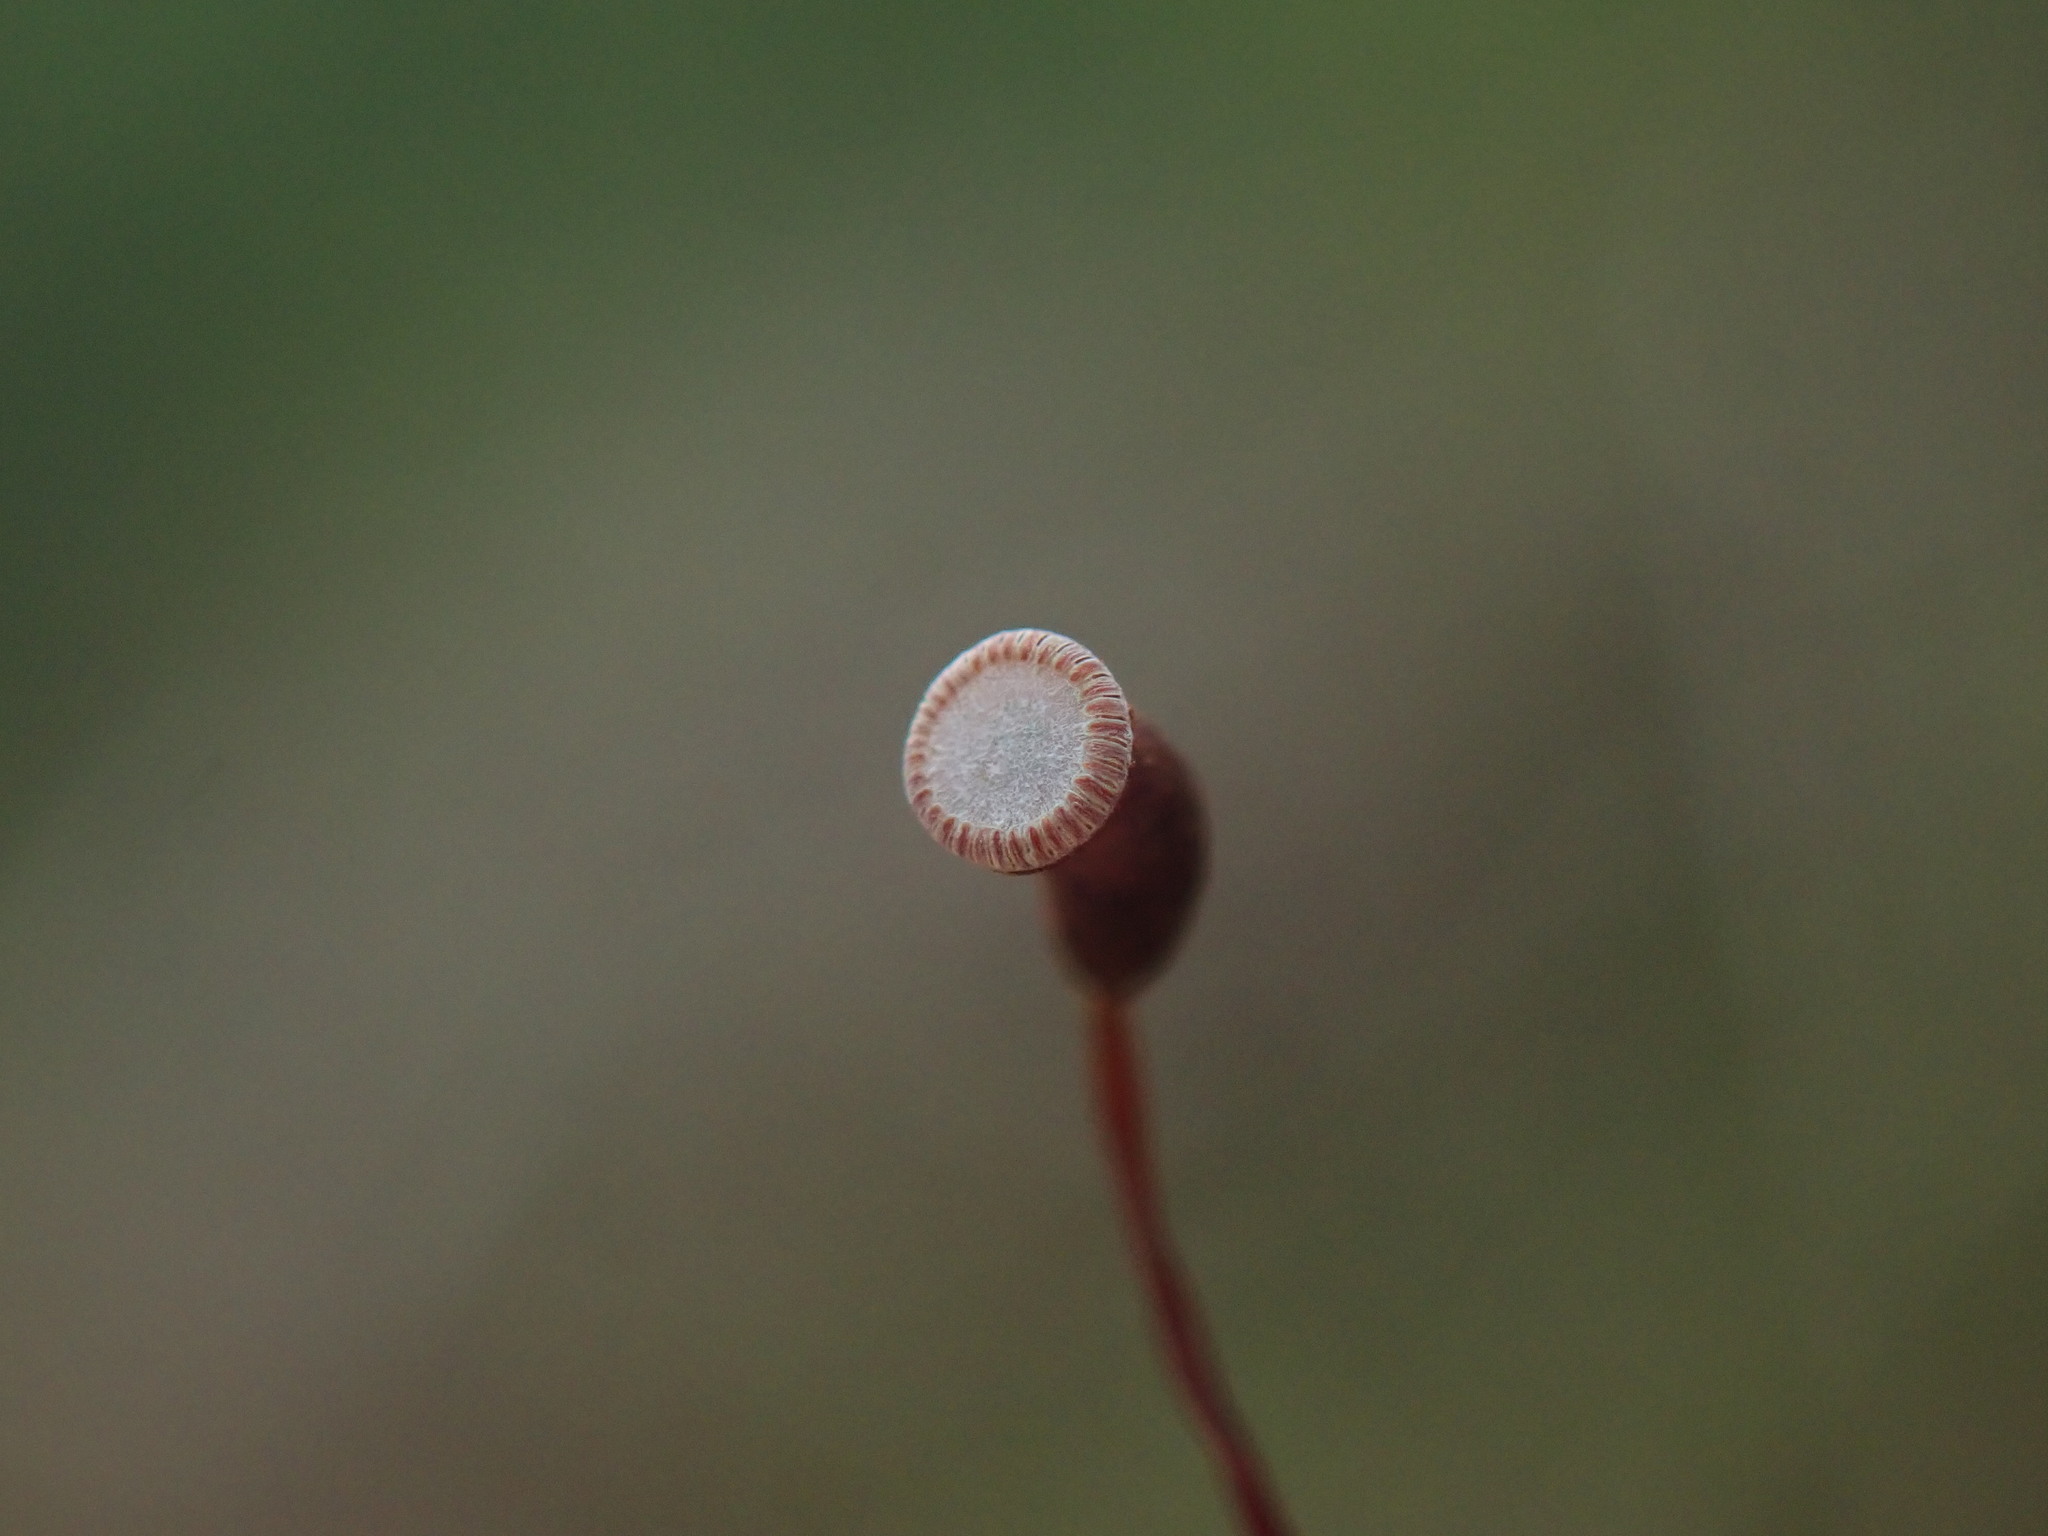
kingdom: Plantae
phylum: Bryophyta
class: Polytrichopsida
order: Polytrichales
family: Polytrichaceae
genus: Pogonatum
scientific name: Pogonatum contortum
